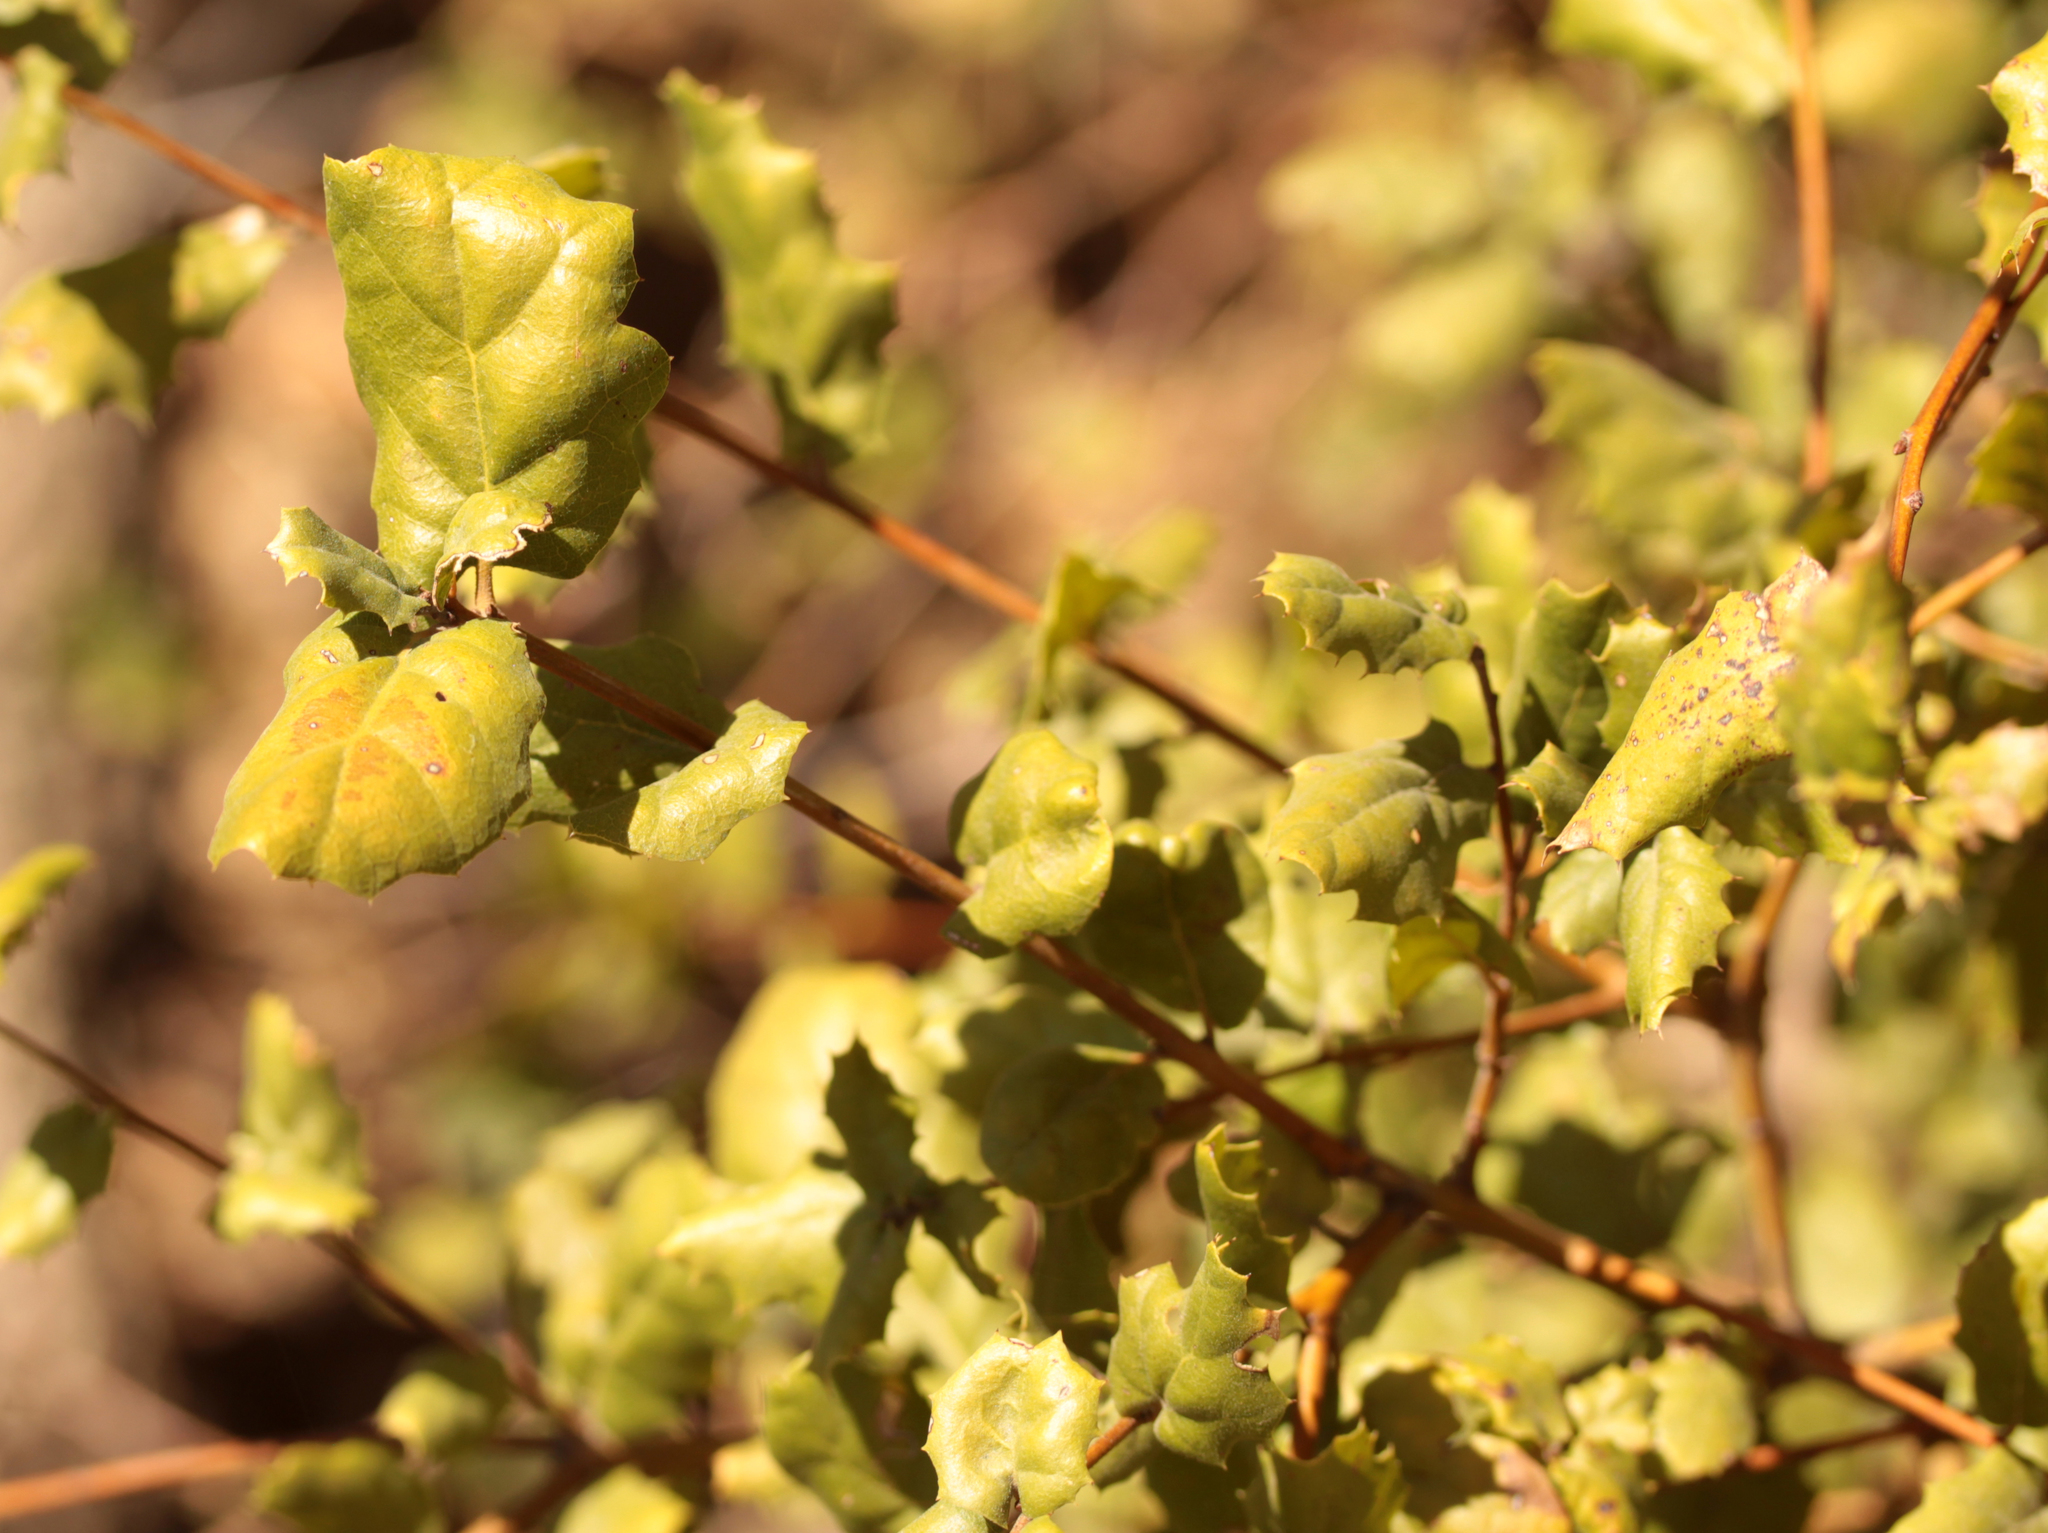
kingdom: Plantae
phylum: Tracheophyta
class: Magnoliopsida
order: Fagales
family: Fagaceae
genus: Quercus
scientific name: Quercus agrifolia
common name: California live oak
